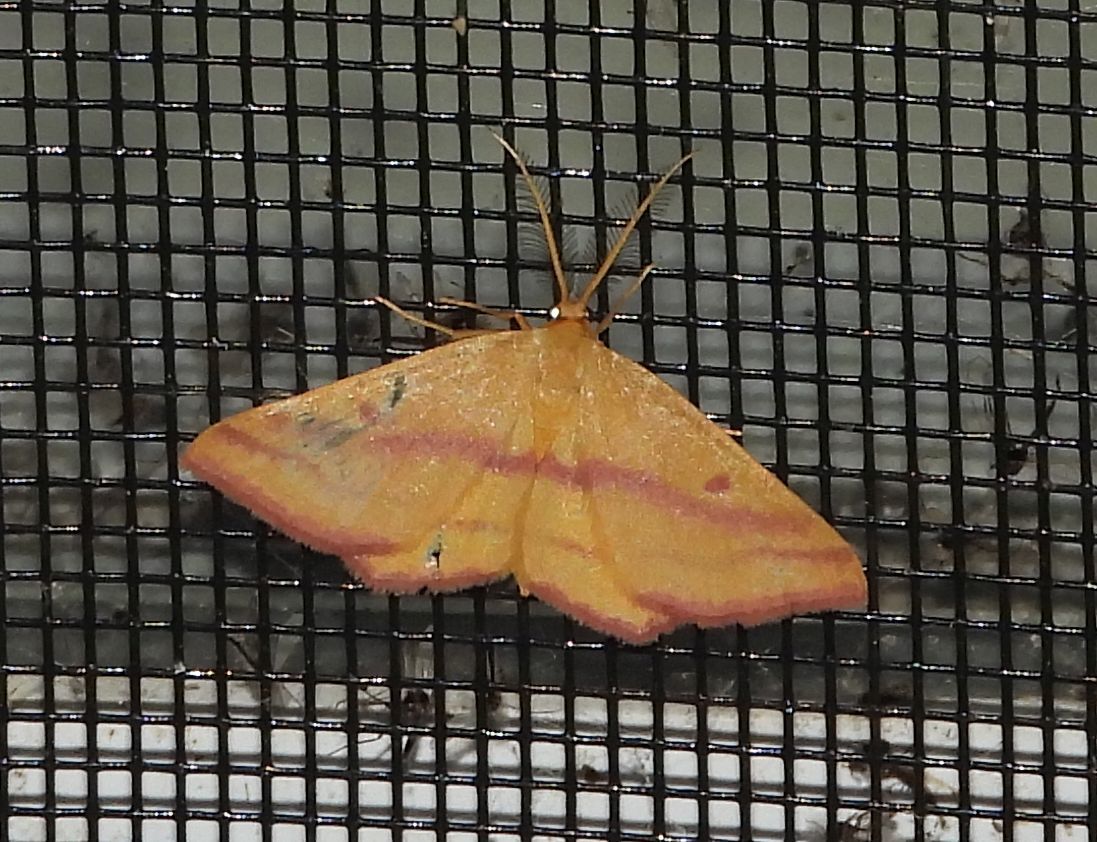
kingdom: Animalia
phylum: Arthropoda
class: Insecta
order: Lepidoptera
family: Geometridae
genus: Haematopis
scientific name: Haematopis grataria
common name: Chickweed geometer
